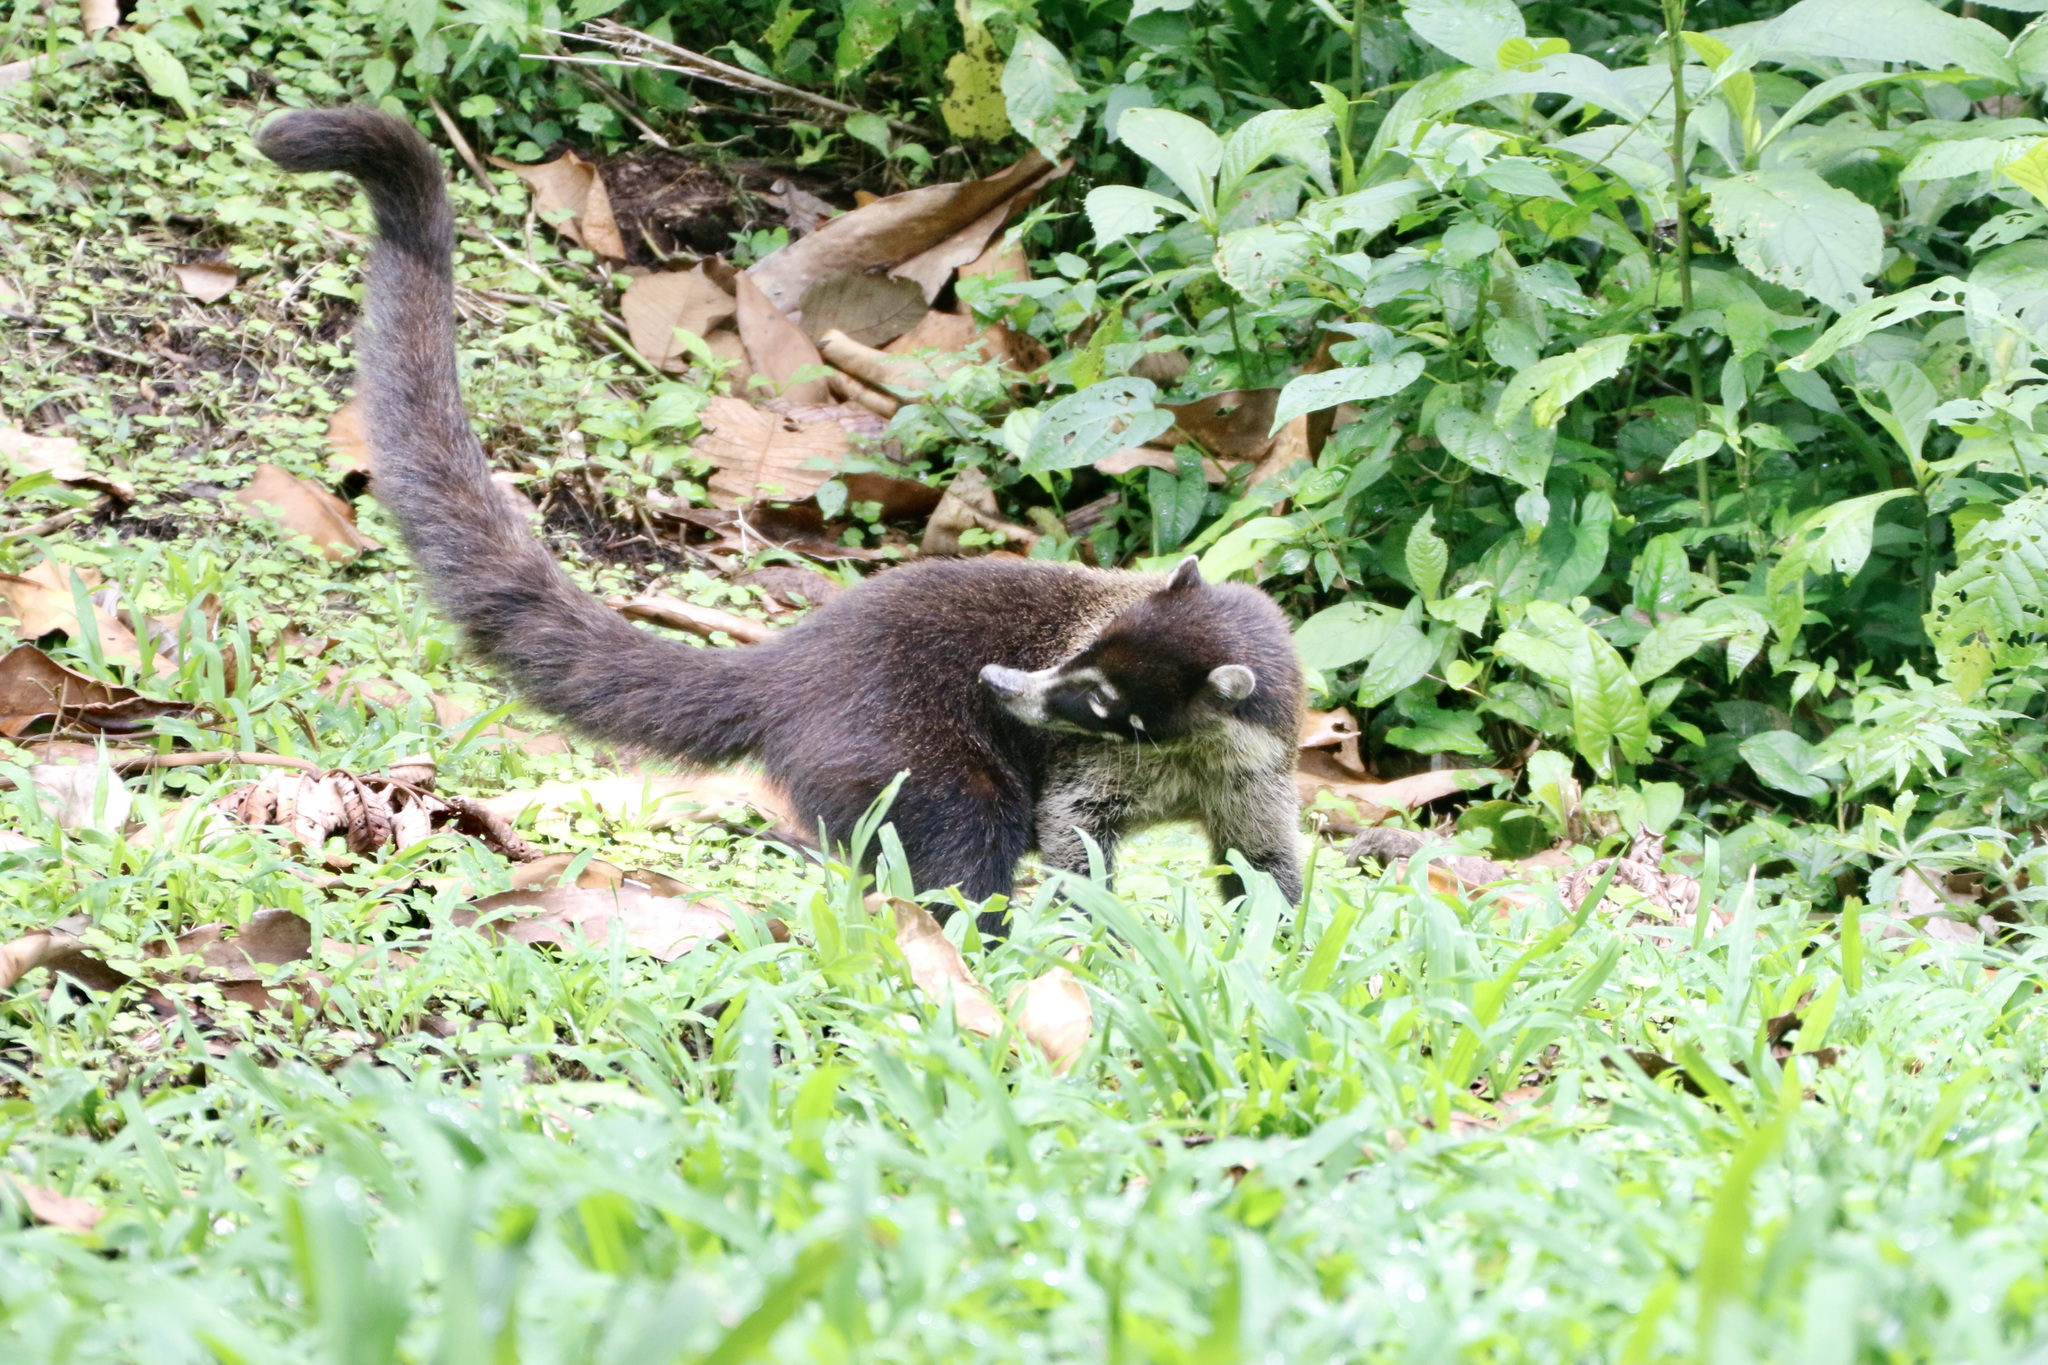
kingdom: Animalia
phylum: Chordata
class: Mammalia
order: Carnivora
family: Procyonidae
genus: Nasua
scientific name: Nasua narica
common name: White-nosed coati
